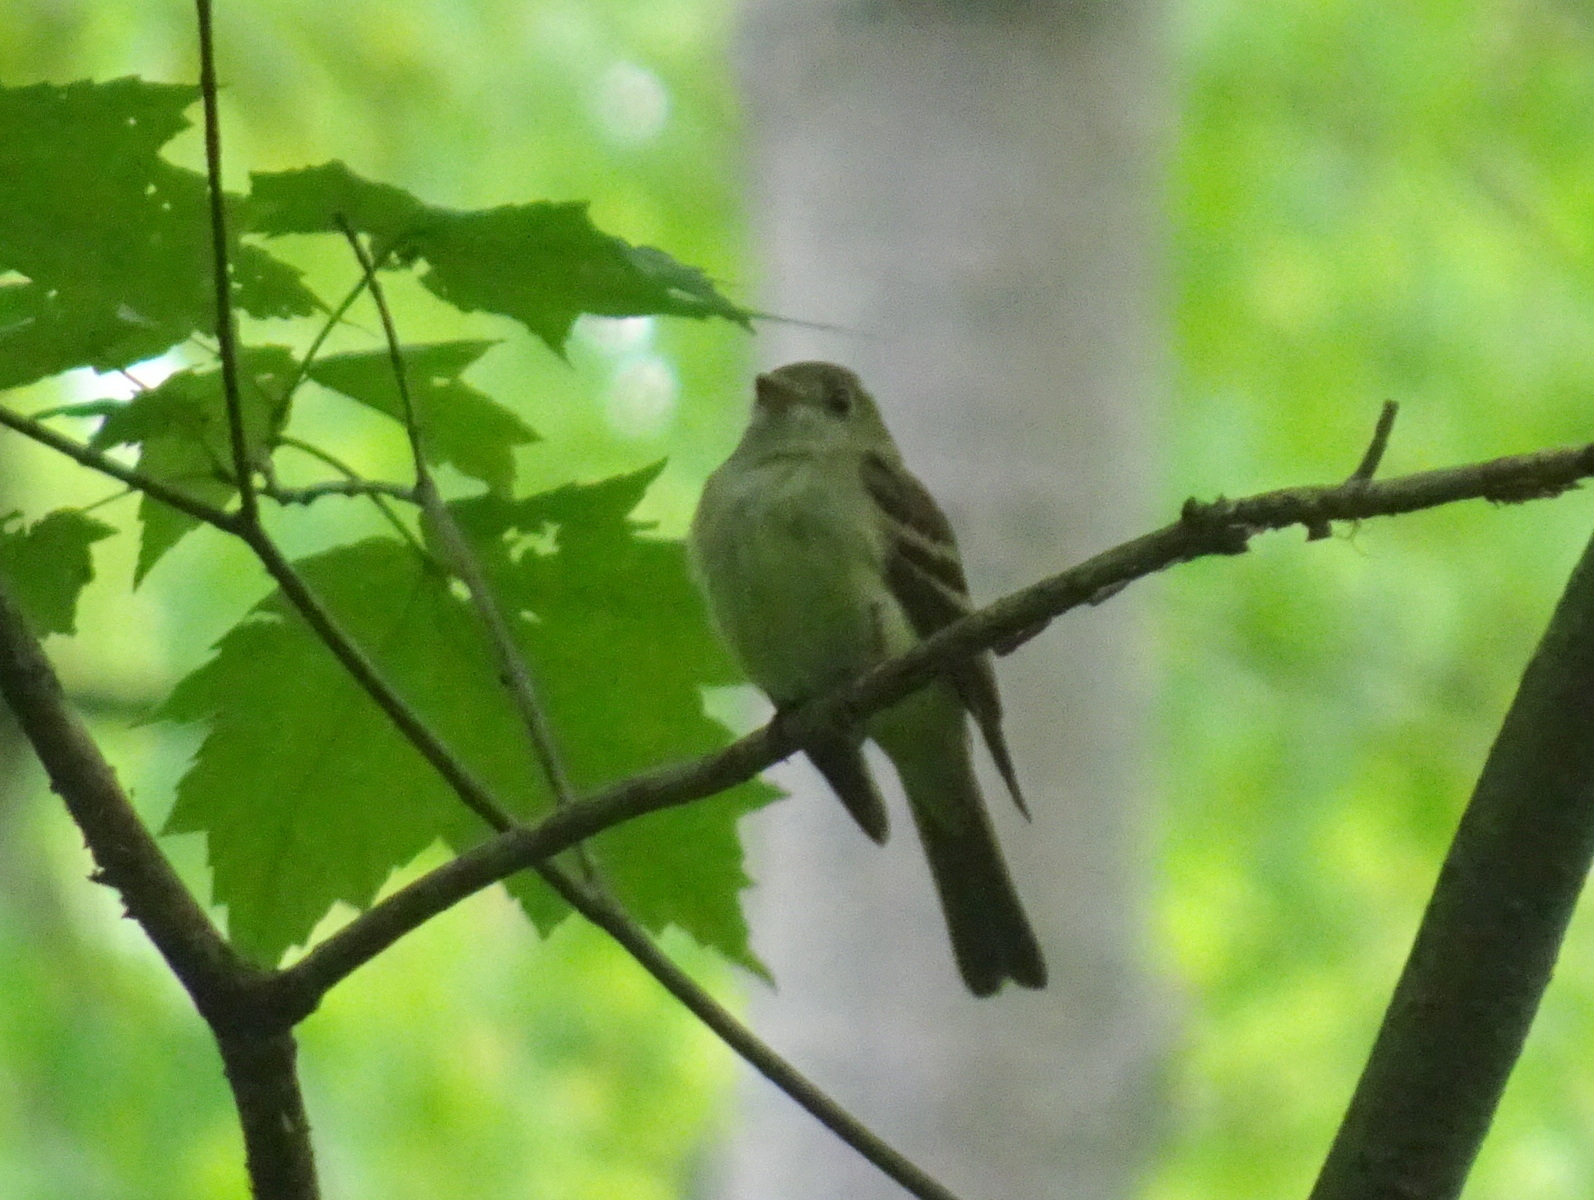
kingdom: Animalia
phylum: Chordata
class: Aves
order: Passeriformes
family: Tyrannidae
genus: Empidonax
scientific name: Empidonax virescens
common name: Acadian flycatcher
